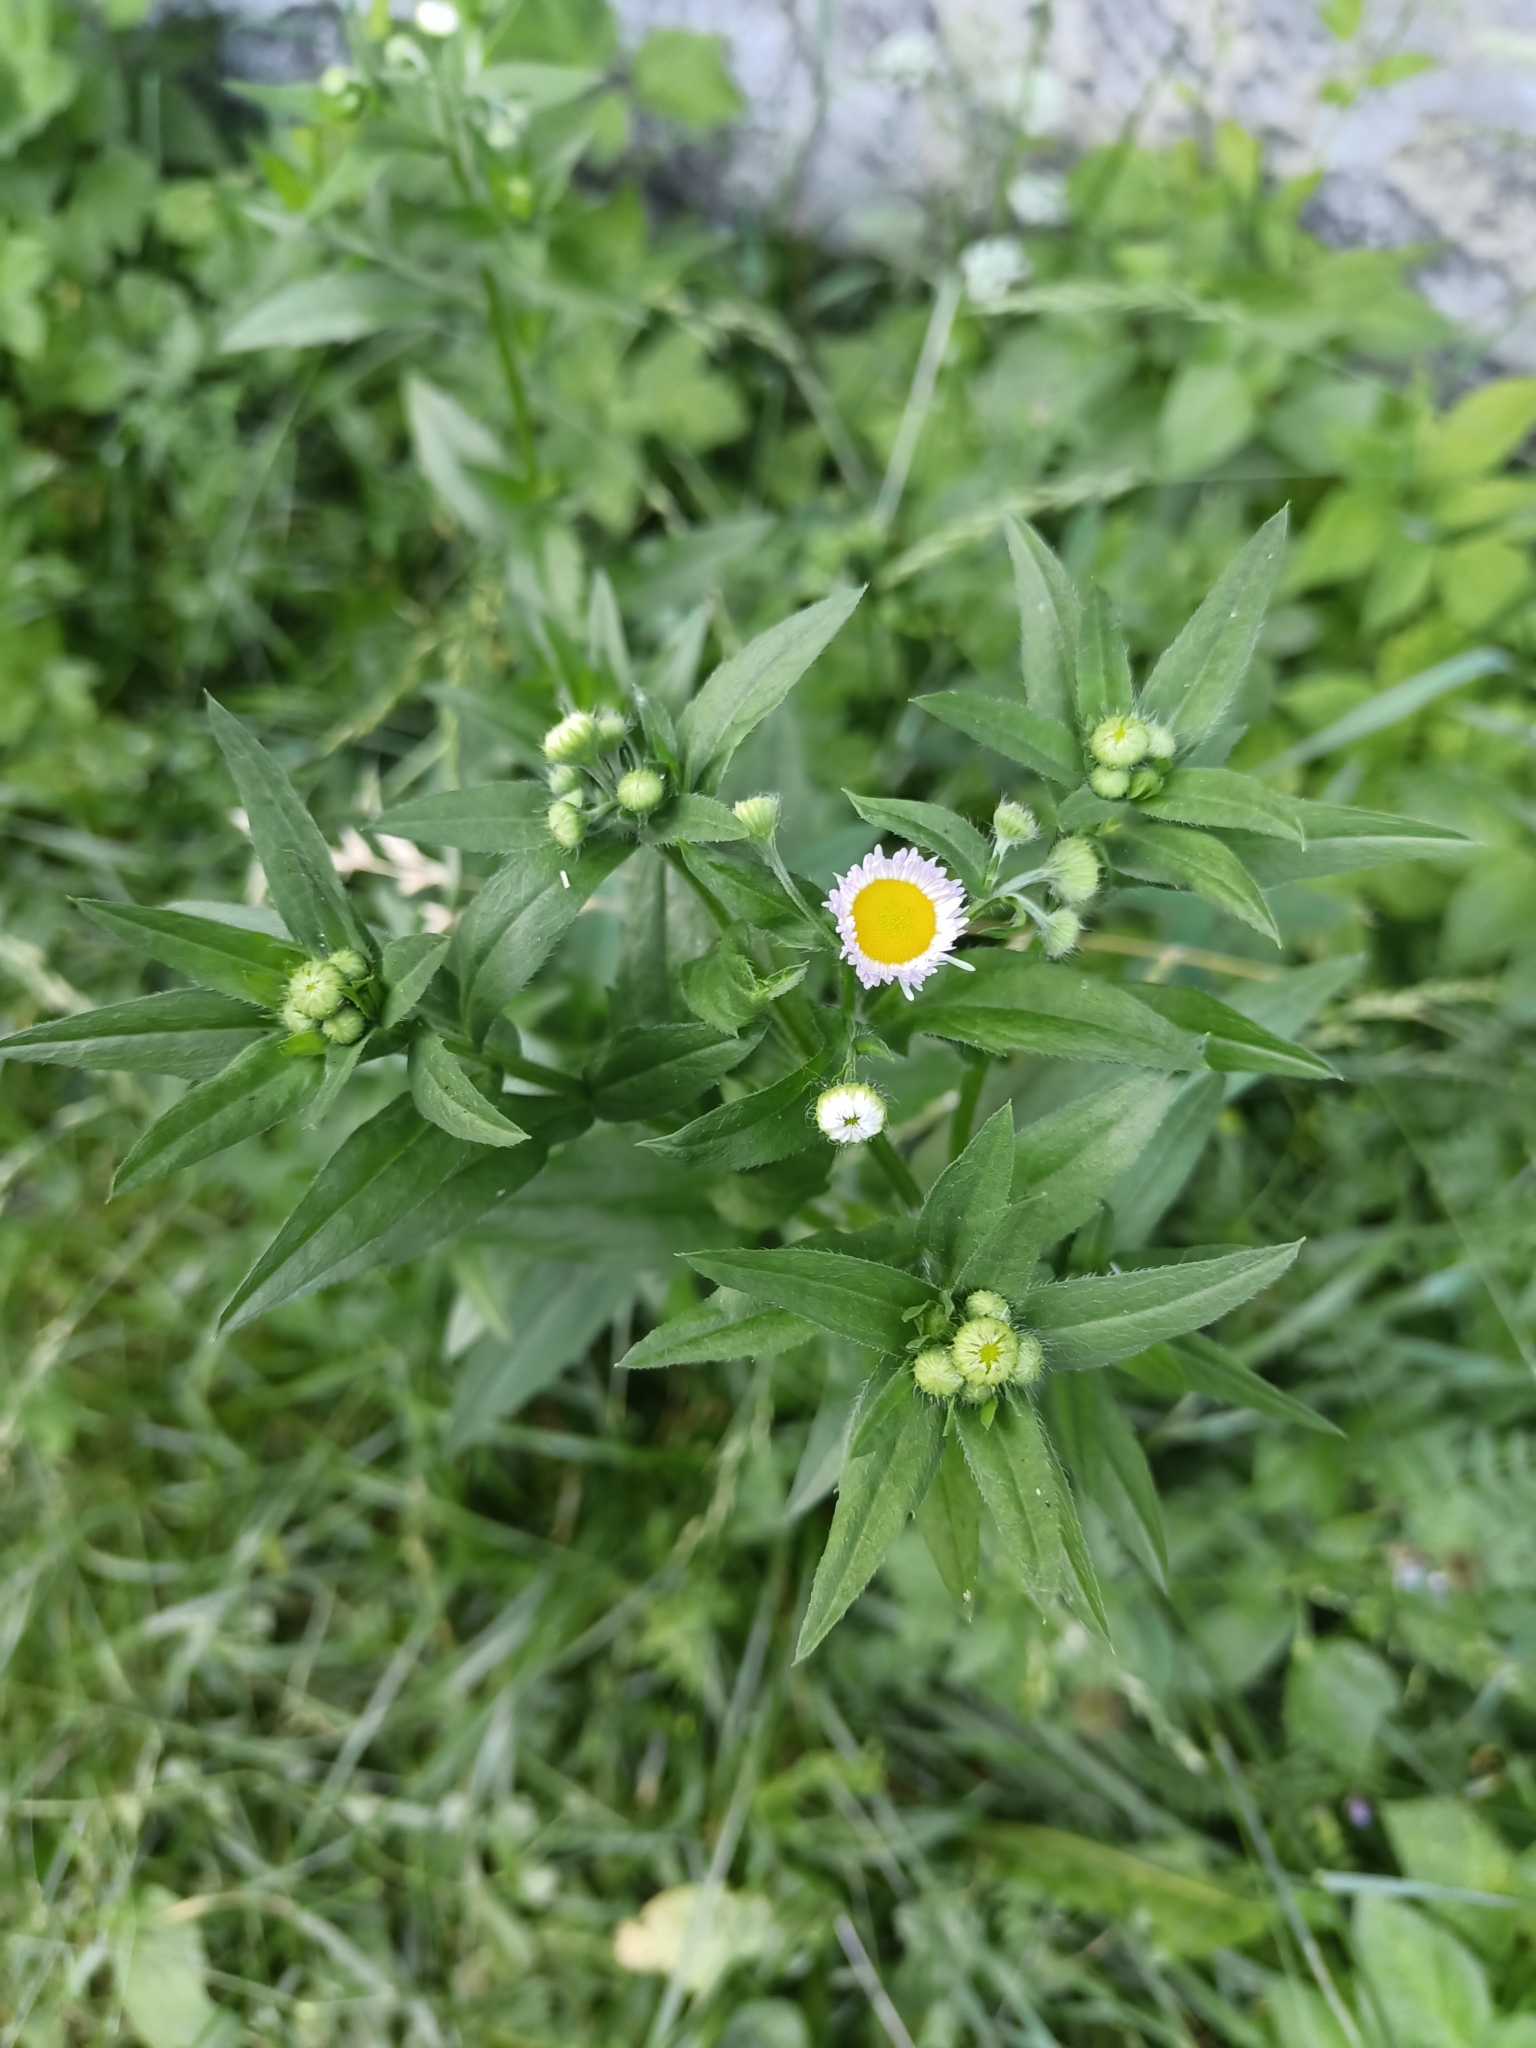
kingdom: Plantae
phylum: Tracheophyta
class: Magnoliopsida
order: Asterales
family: Asteraceae
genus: Erigeron
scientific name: Erigeron annuus
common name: Tall fleabane
